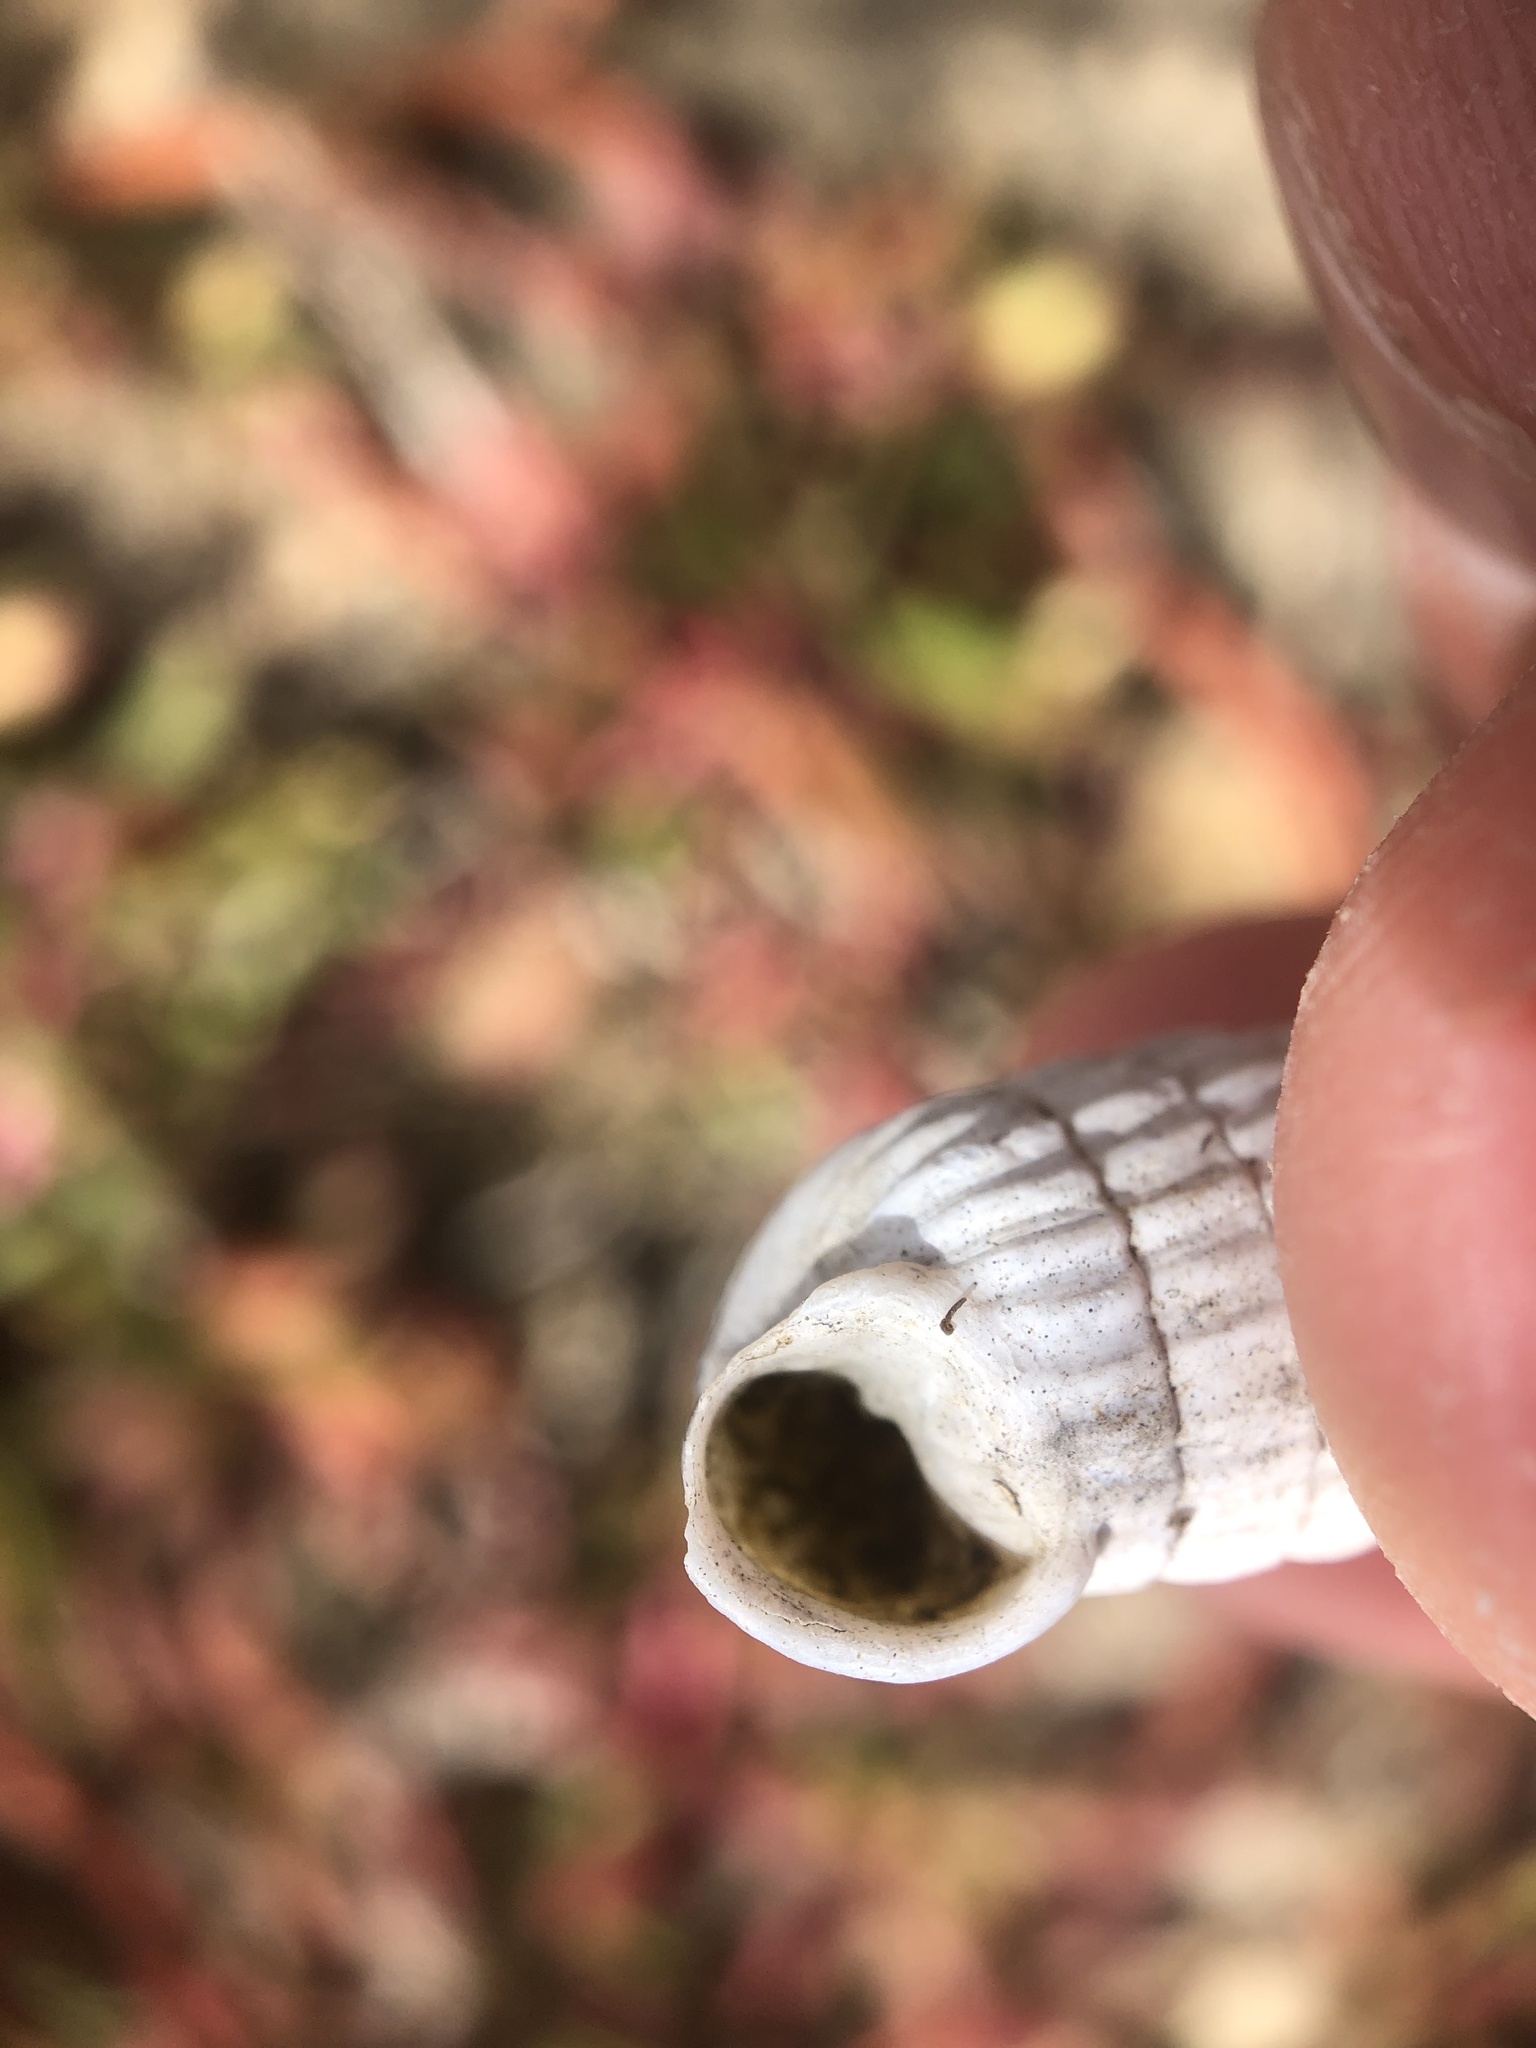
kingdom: Animalia
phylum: Mollusca
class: Gastropoda
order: Stylommatophora
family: Cerionidae
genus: Cerion
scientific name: Cerion uva
